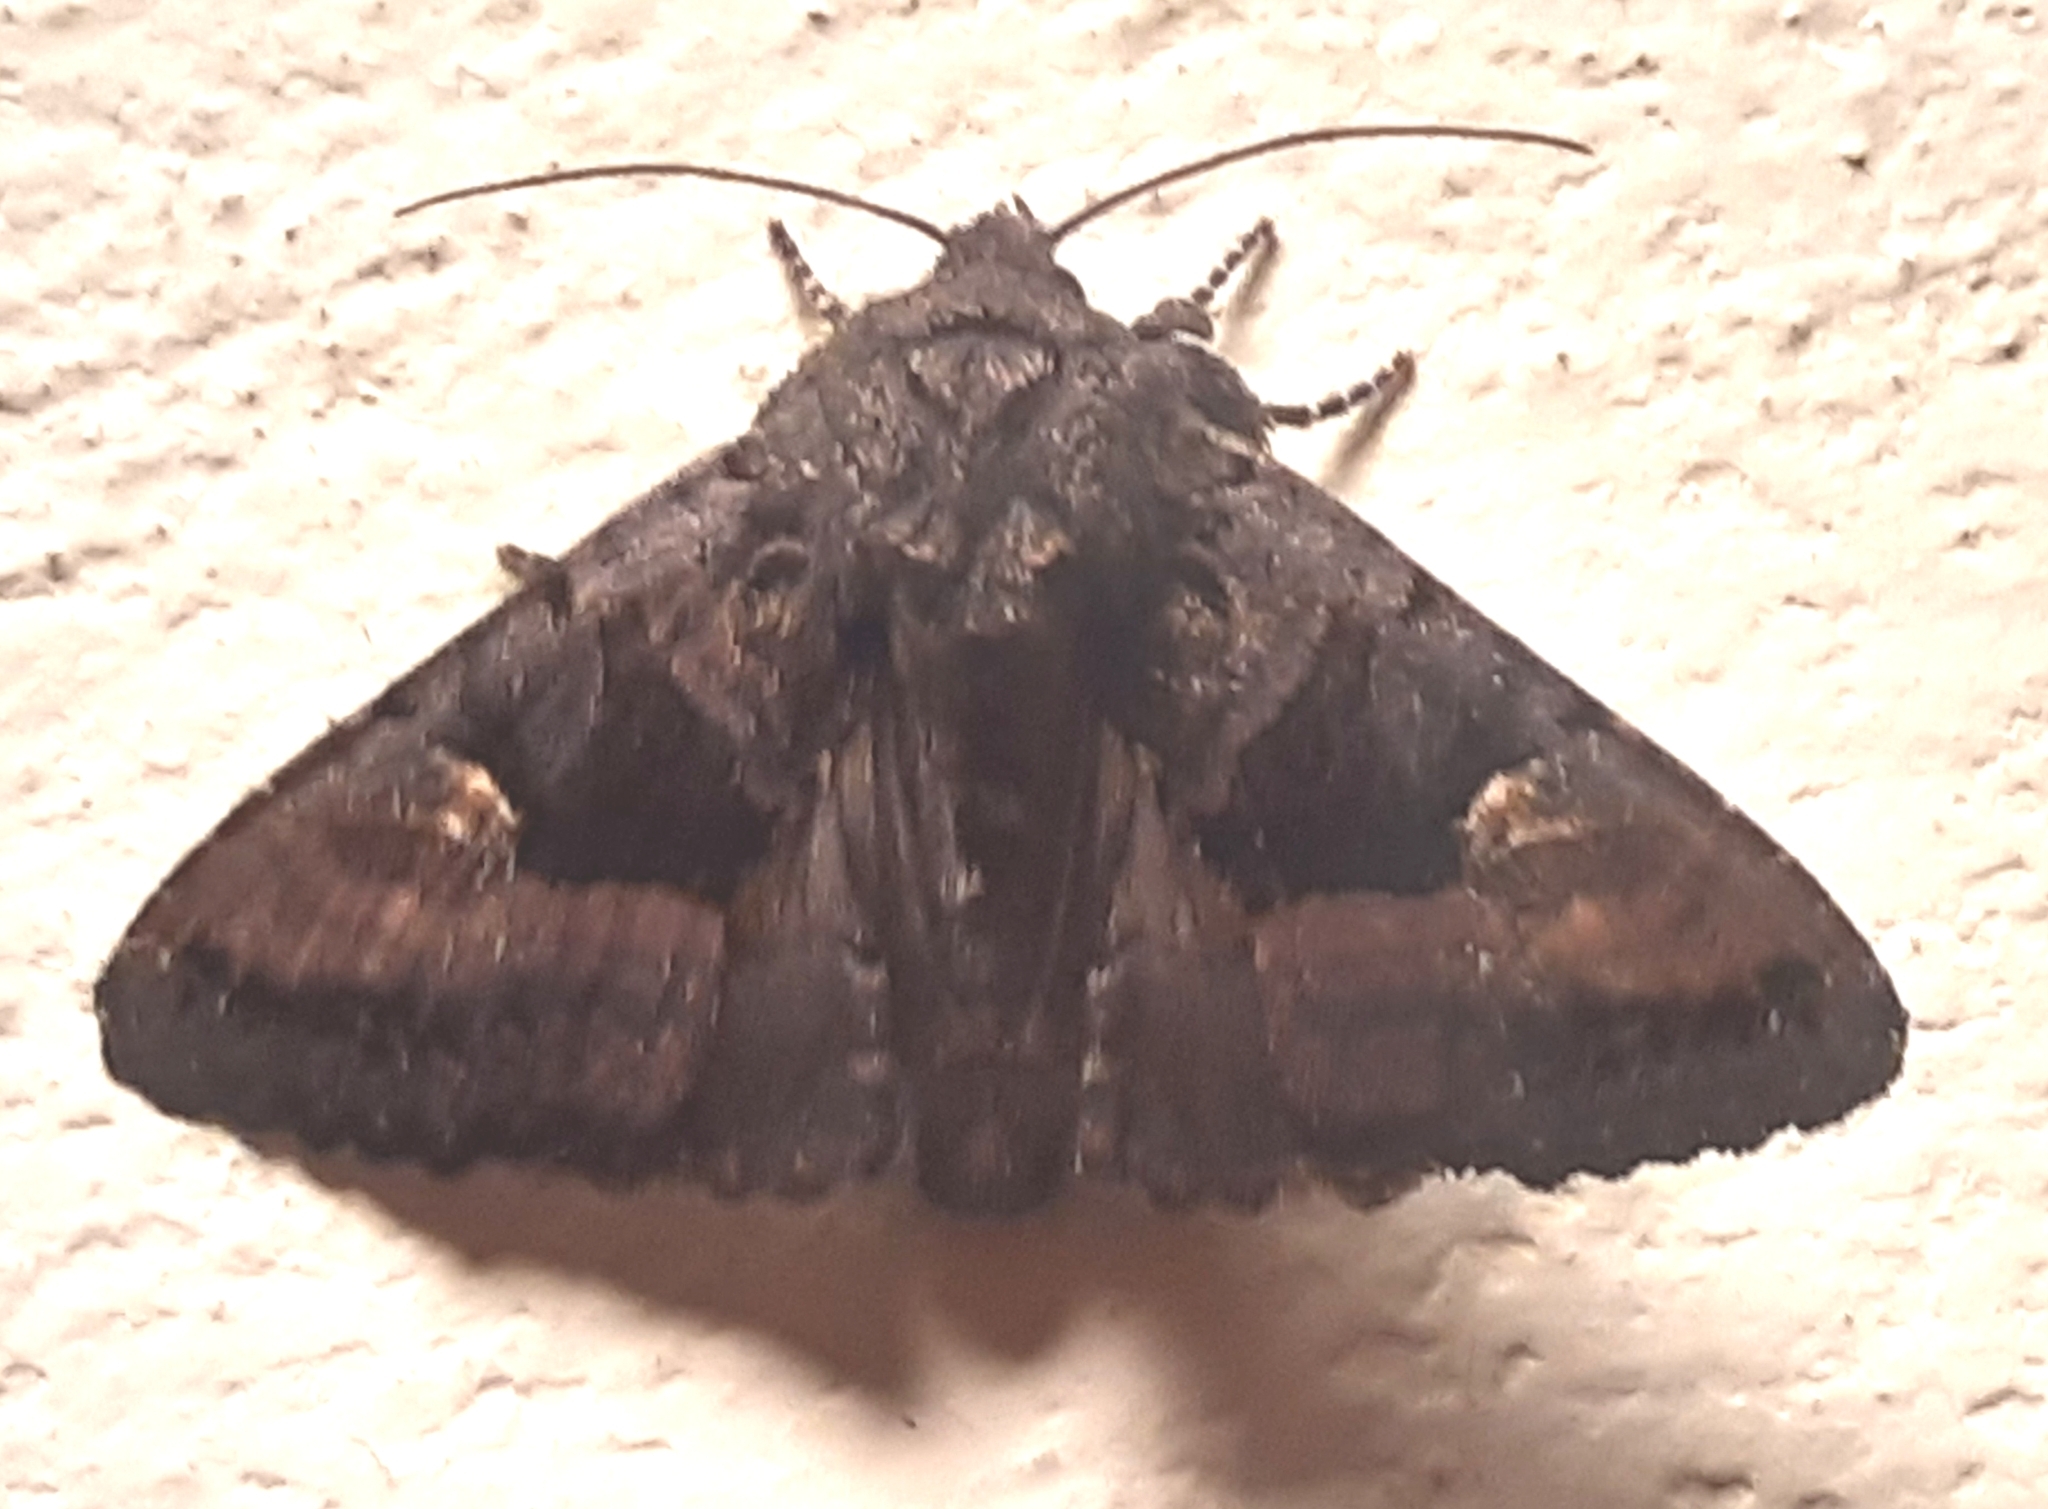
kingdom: Animalia
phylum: Arthropoda
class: Insecta
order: Lepidoptera
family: Noctuidae
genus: Euplexia
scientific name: Euplexia lucipara
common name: Small angle shades
